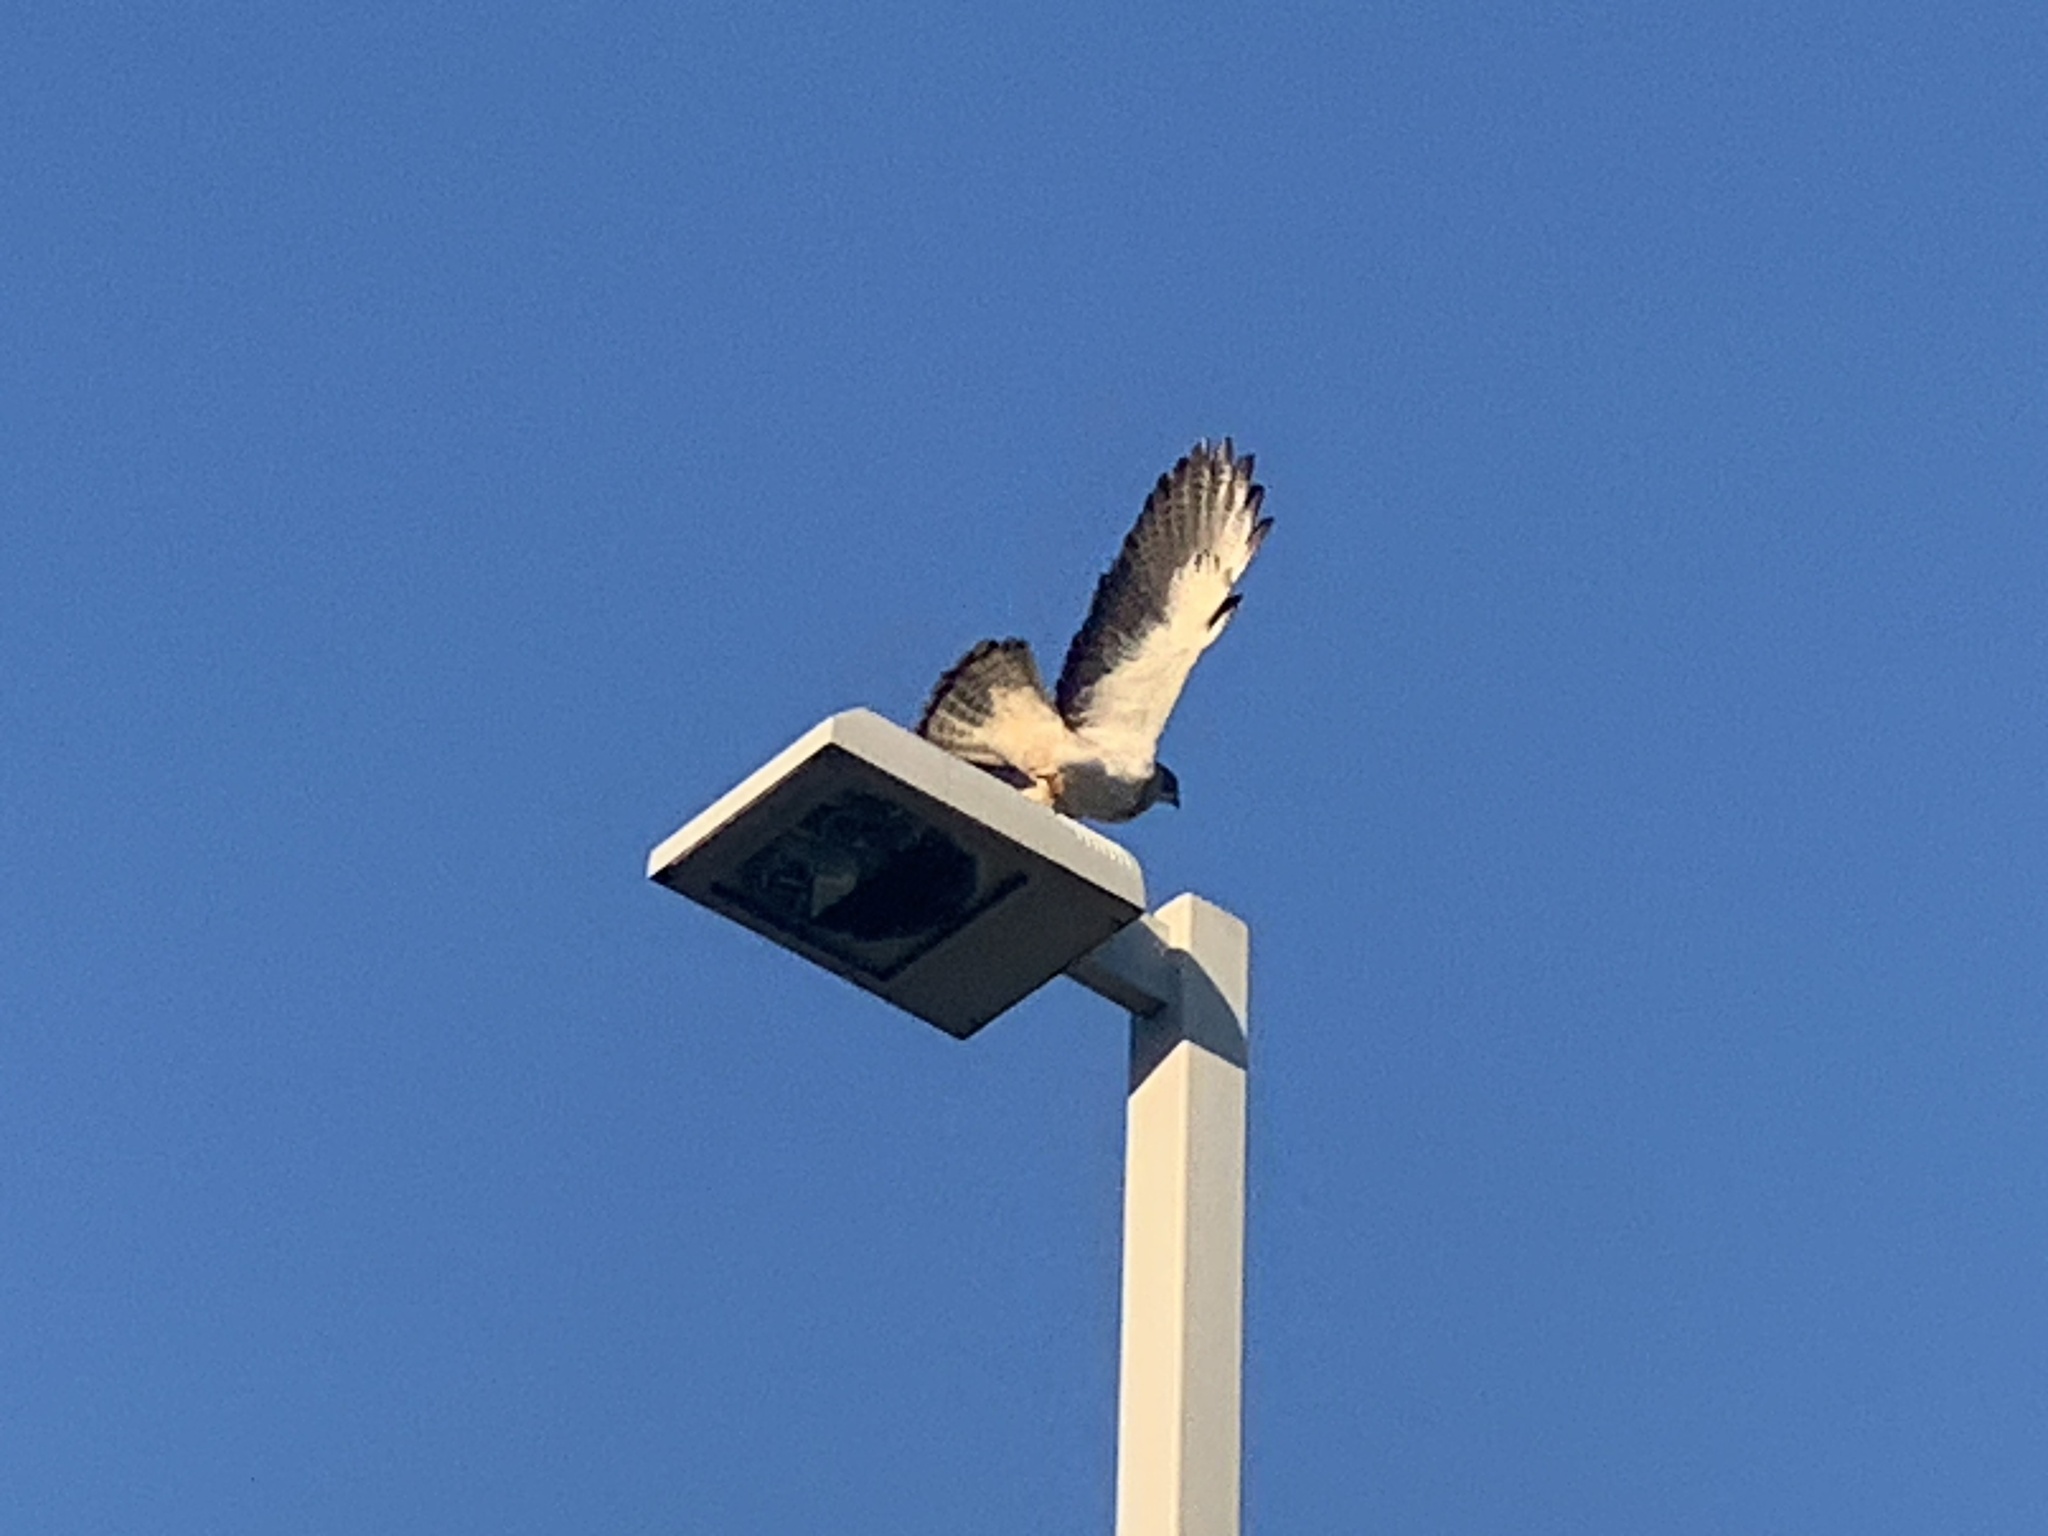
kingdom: Animalia
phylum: Chordata
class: Aves
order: Accipitriformes
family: Accipitridae
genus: Buteo
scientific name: Buteo swainsoni
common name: Swainson's hawk
